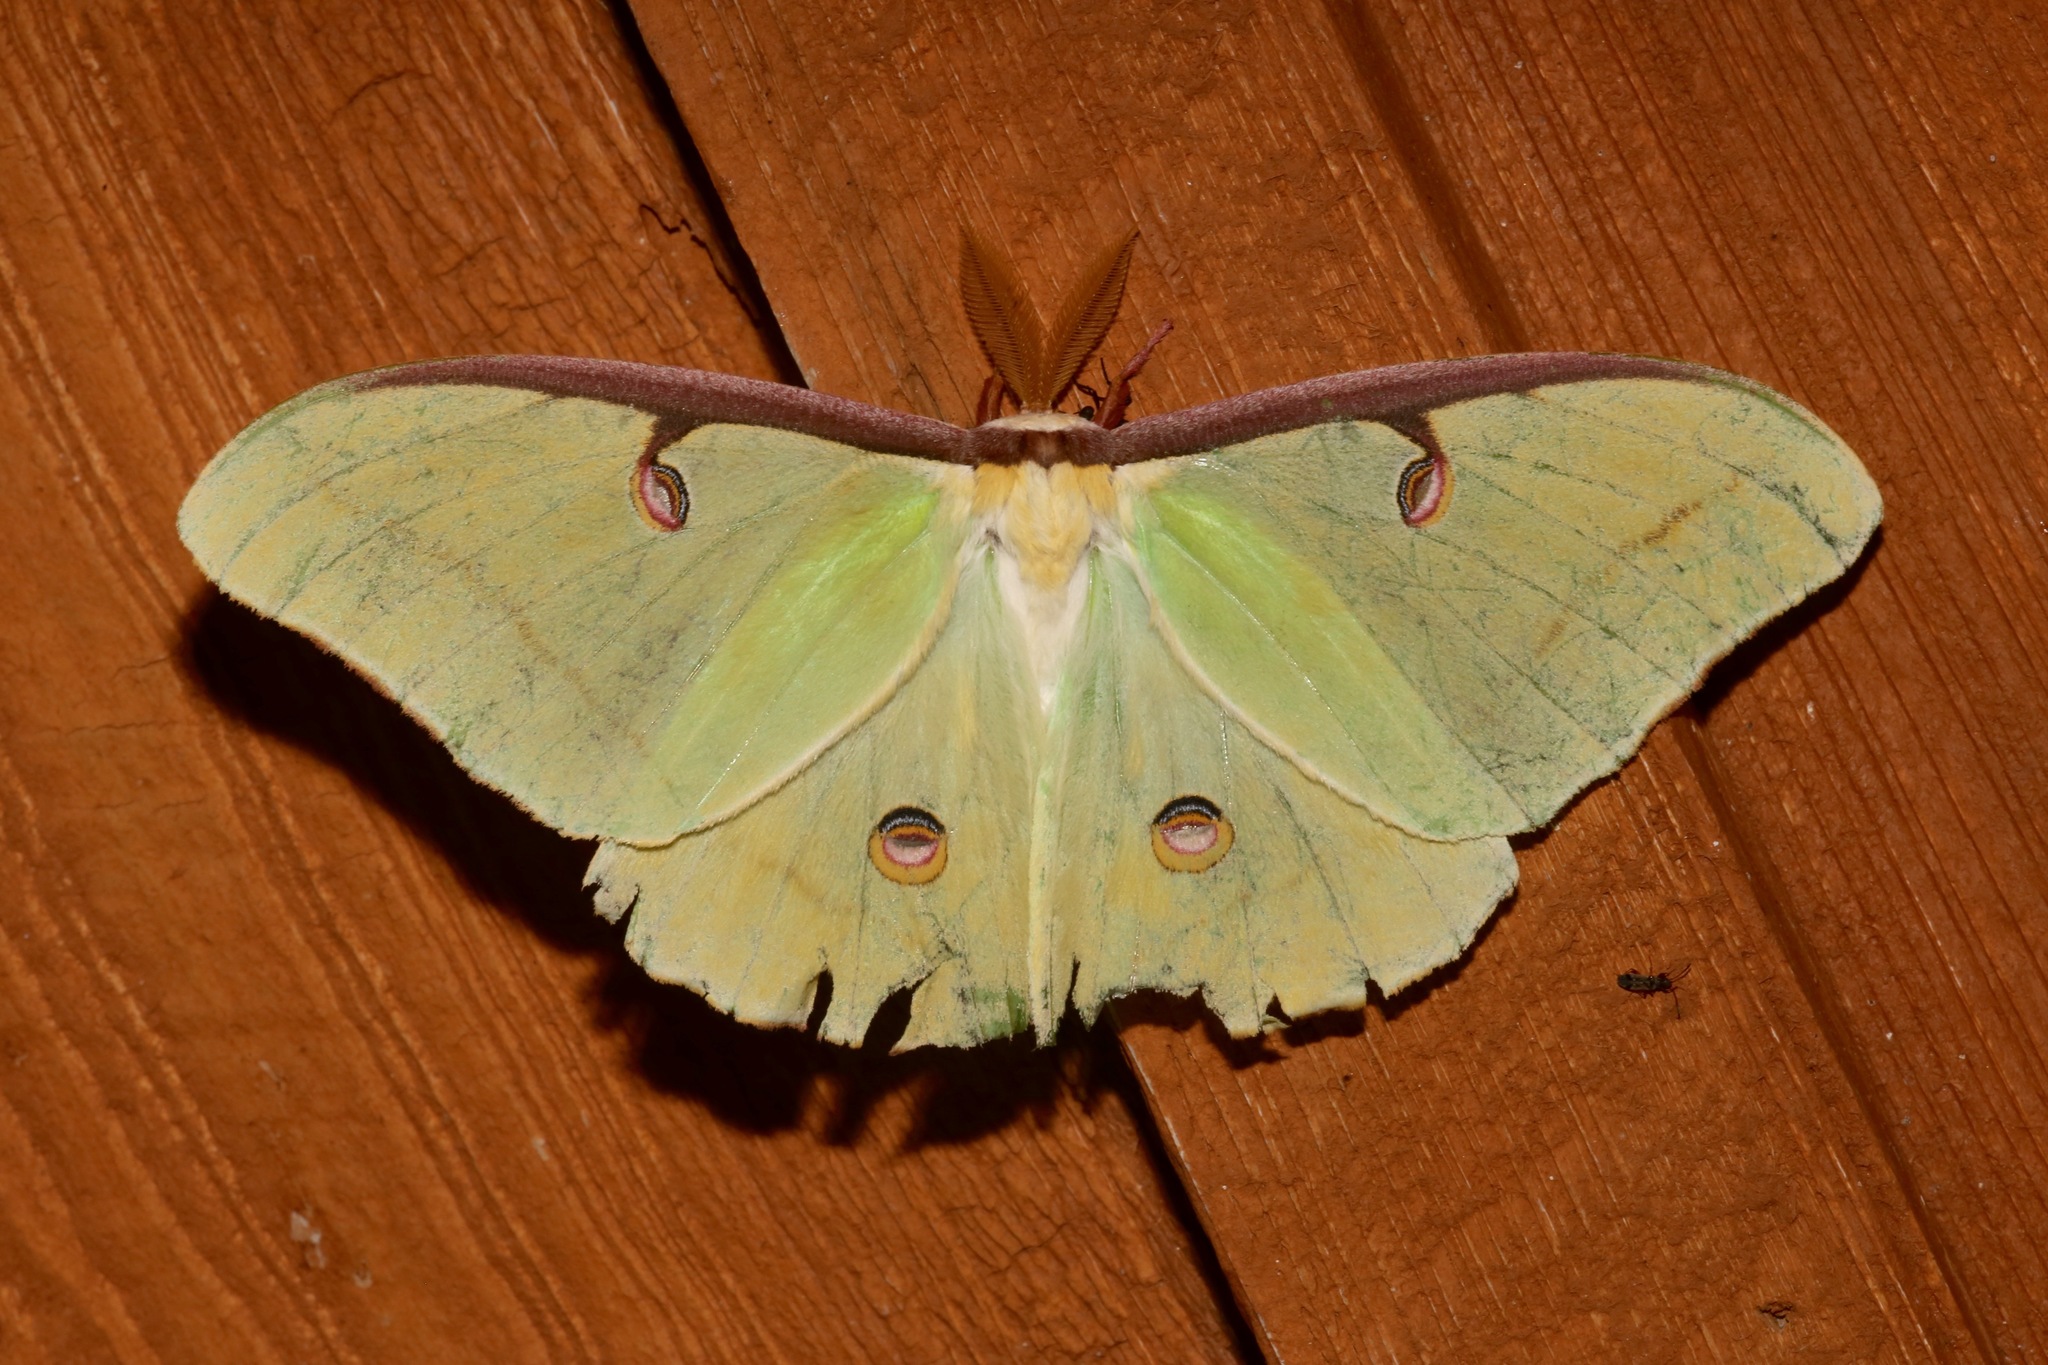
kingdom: Animalia
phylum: Arthropoda
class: Insecta
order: Lepidoptera
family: Saturniidae
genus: Actias
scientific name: Actias luna
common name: Luna moth
